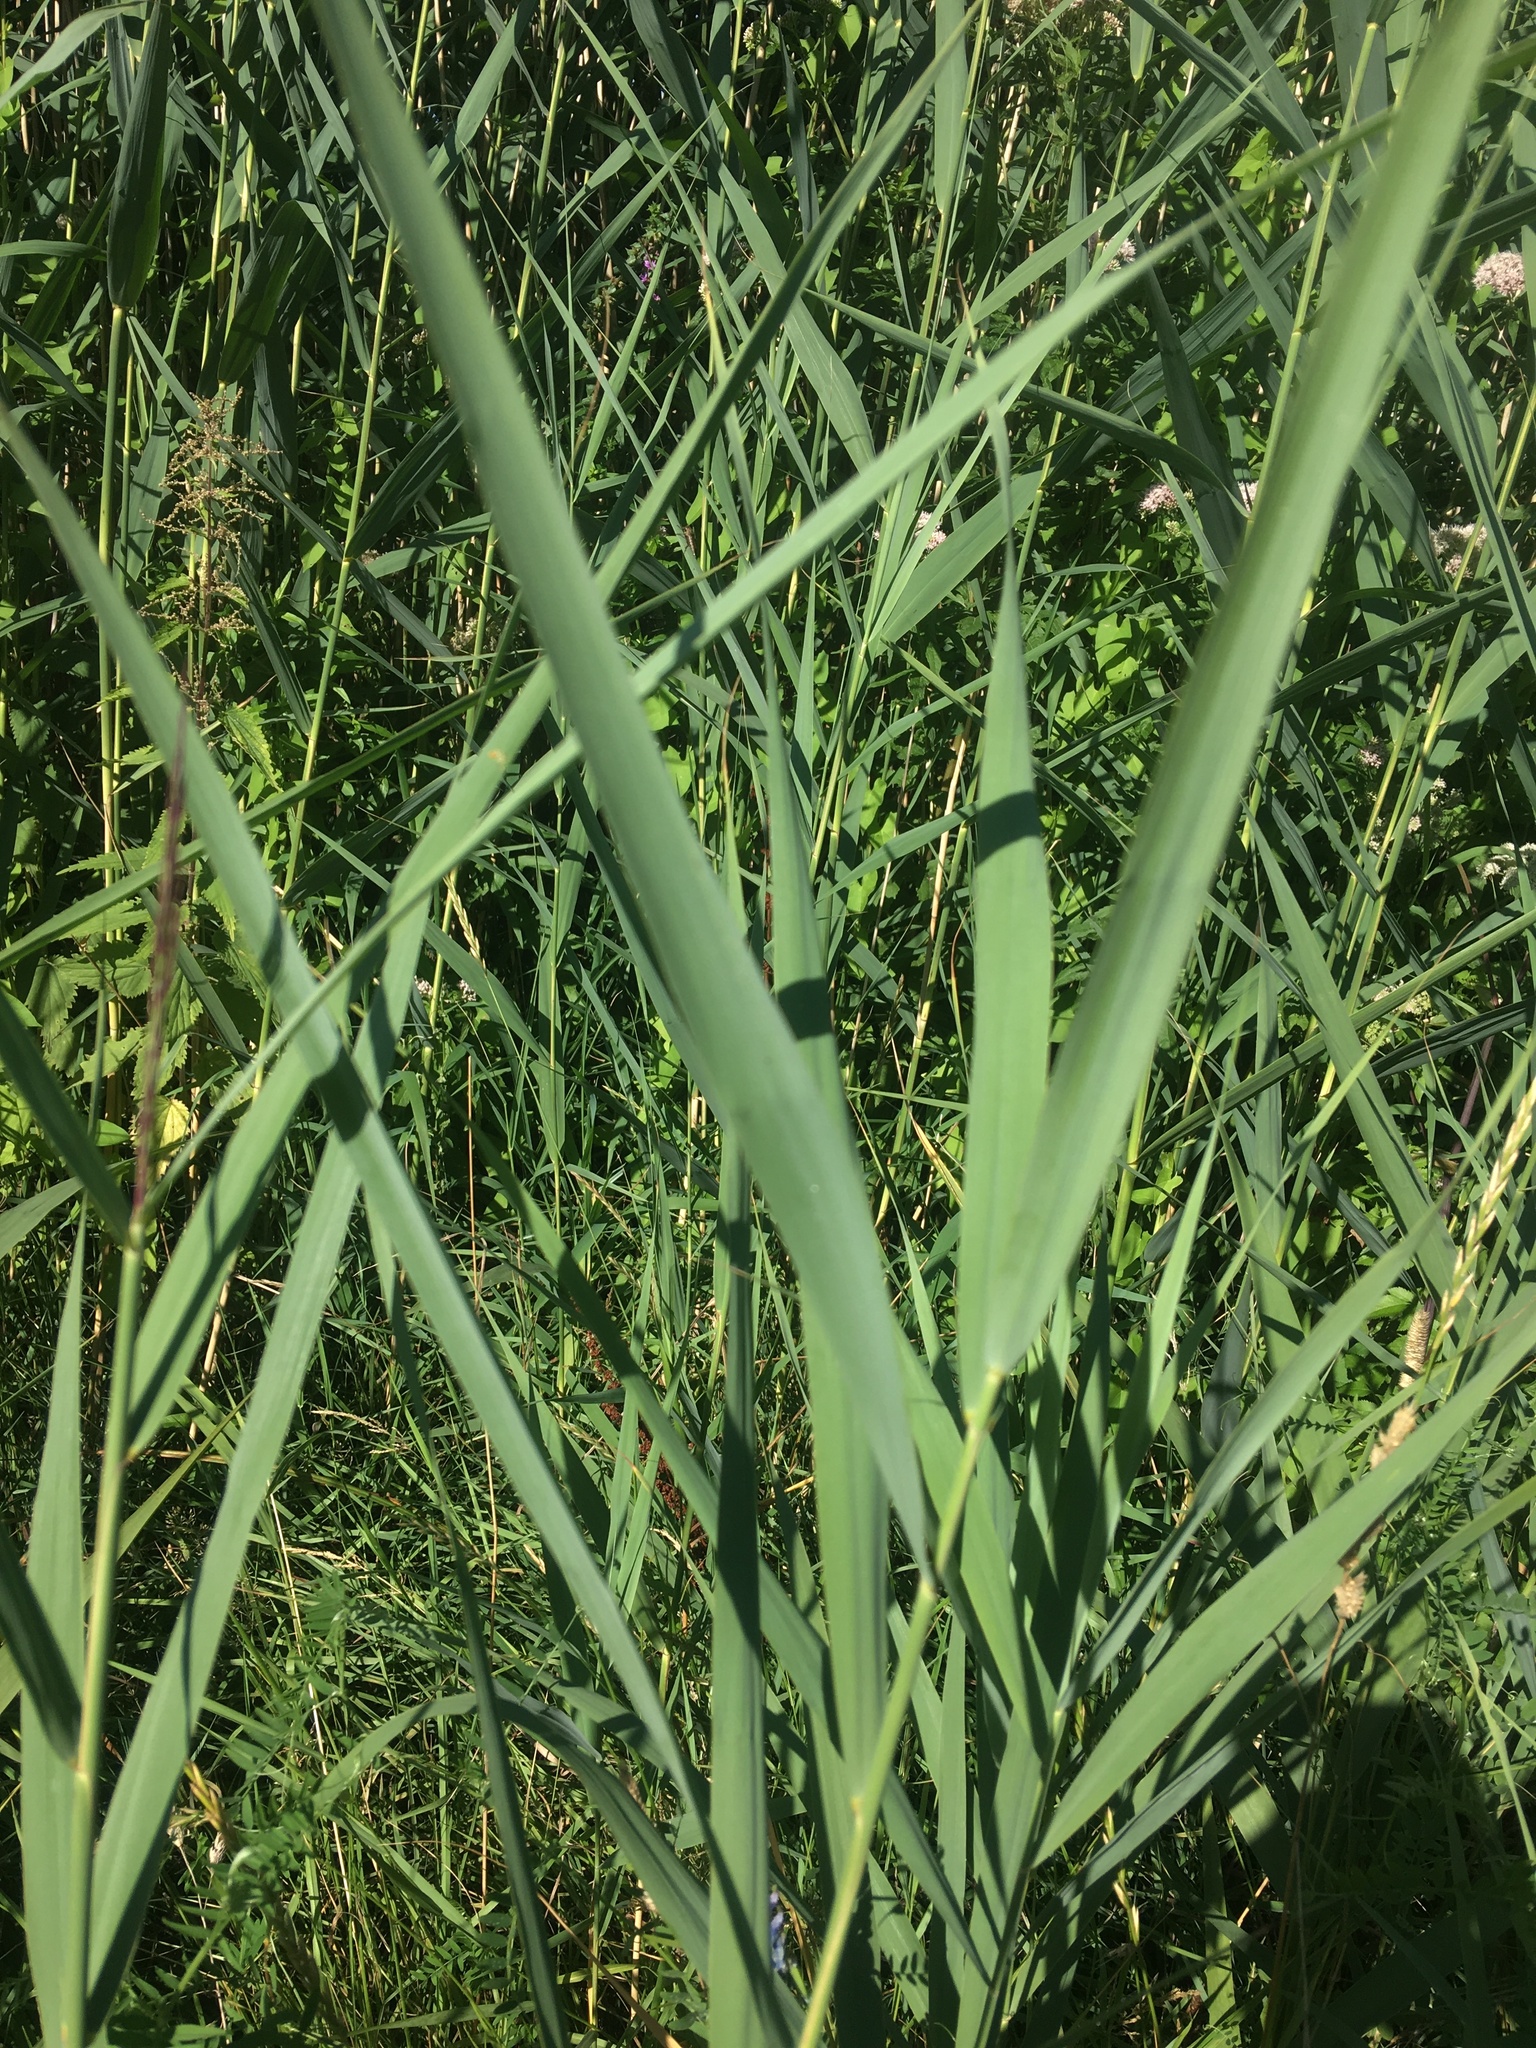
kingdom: Plantae
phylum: Tracheophyta
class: Liliopsida
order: Poales
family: Poaceae
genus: Phragmites
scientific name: Phragmites australis
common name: Common reed
